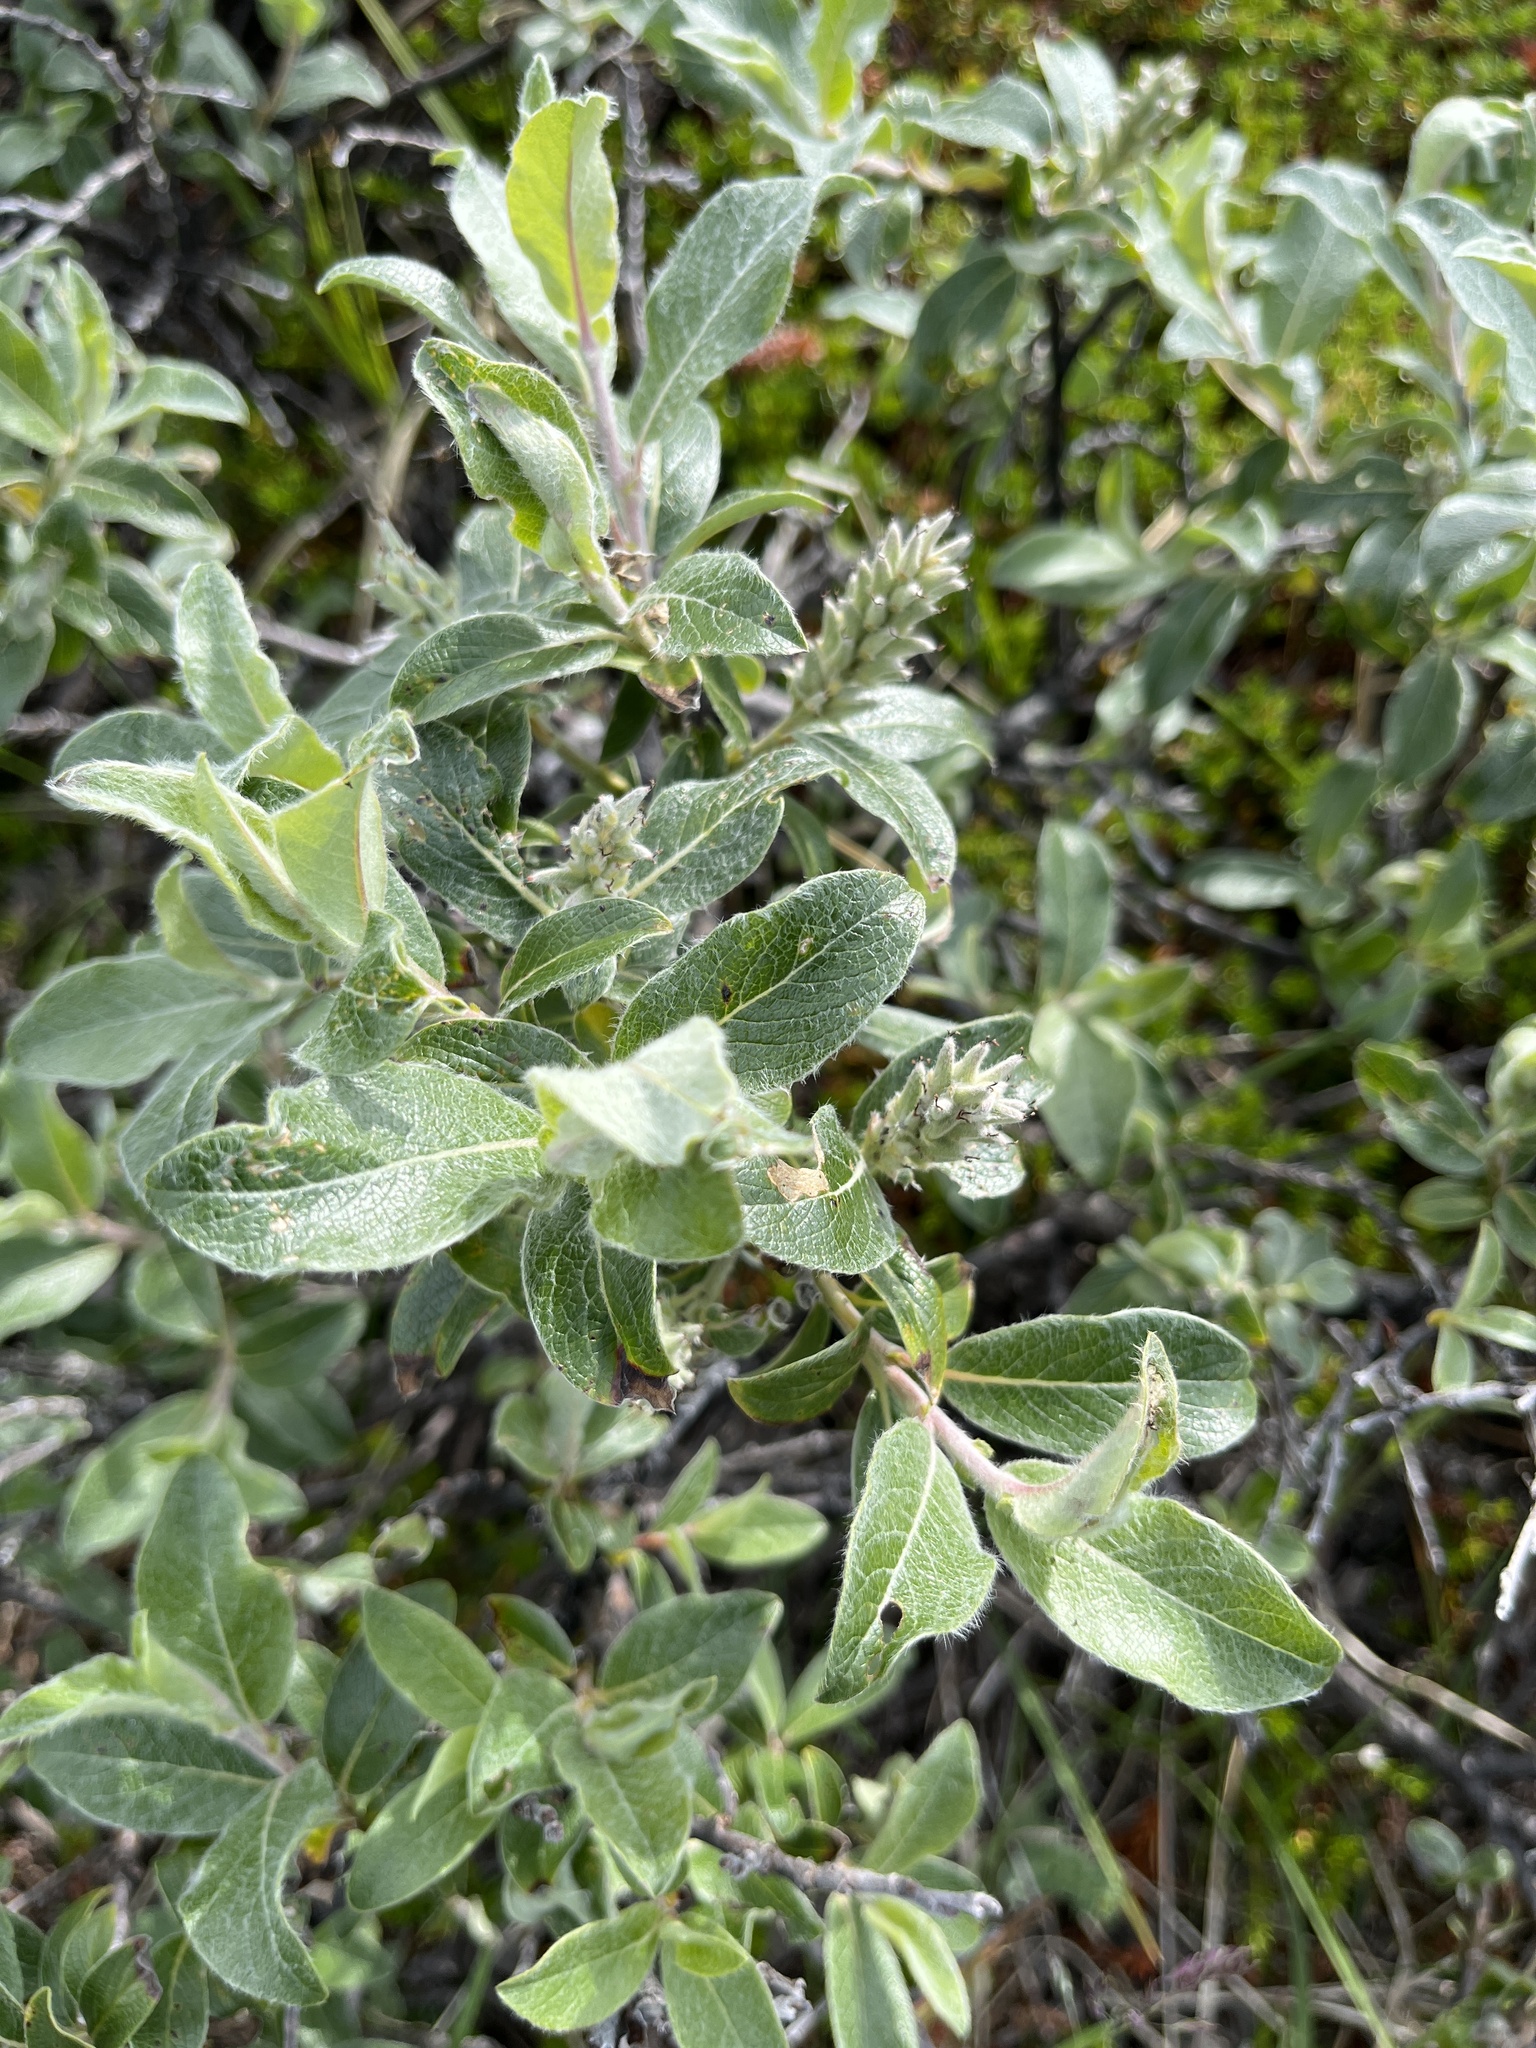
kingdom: Plantae
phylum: Tracheophyta
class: Magnoliopsida
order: Malpighiales
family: Salicaceae
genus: Salix
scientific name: Salix glauca
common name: Glaucous willow
